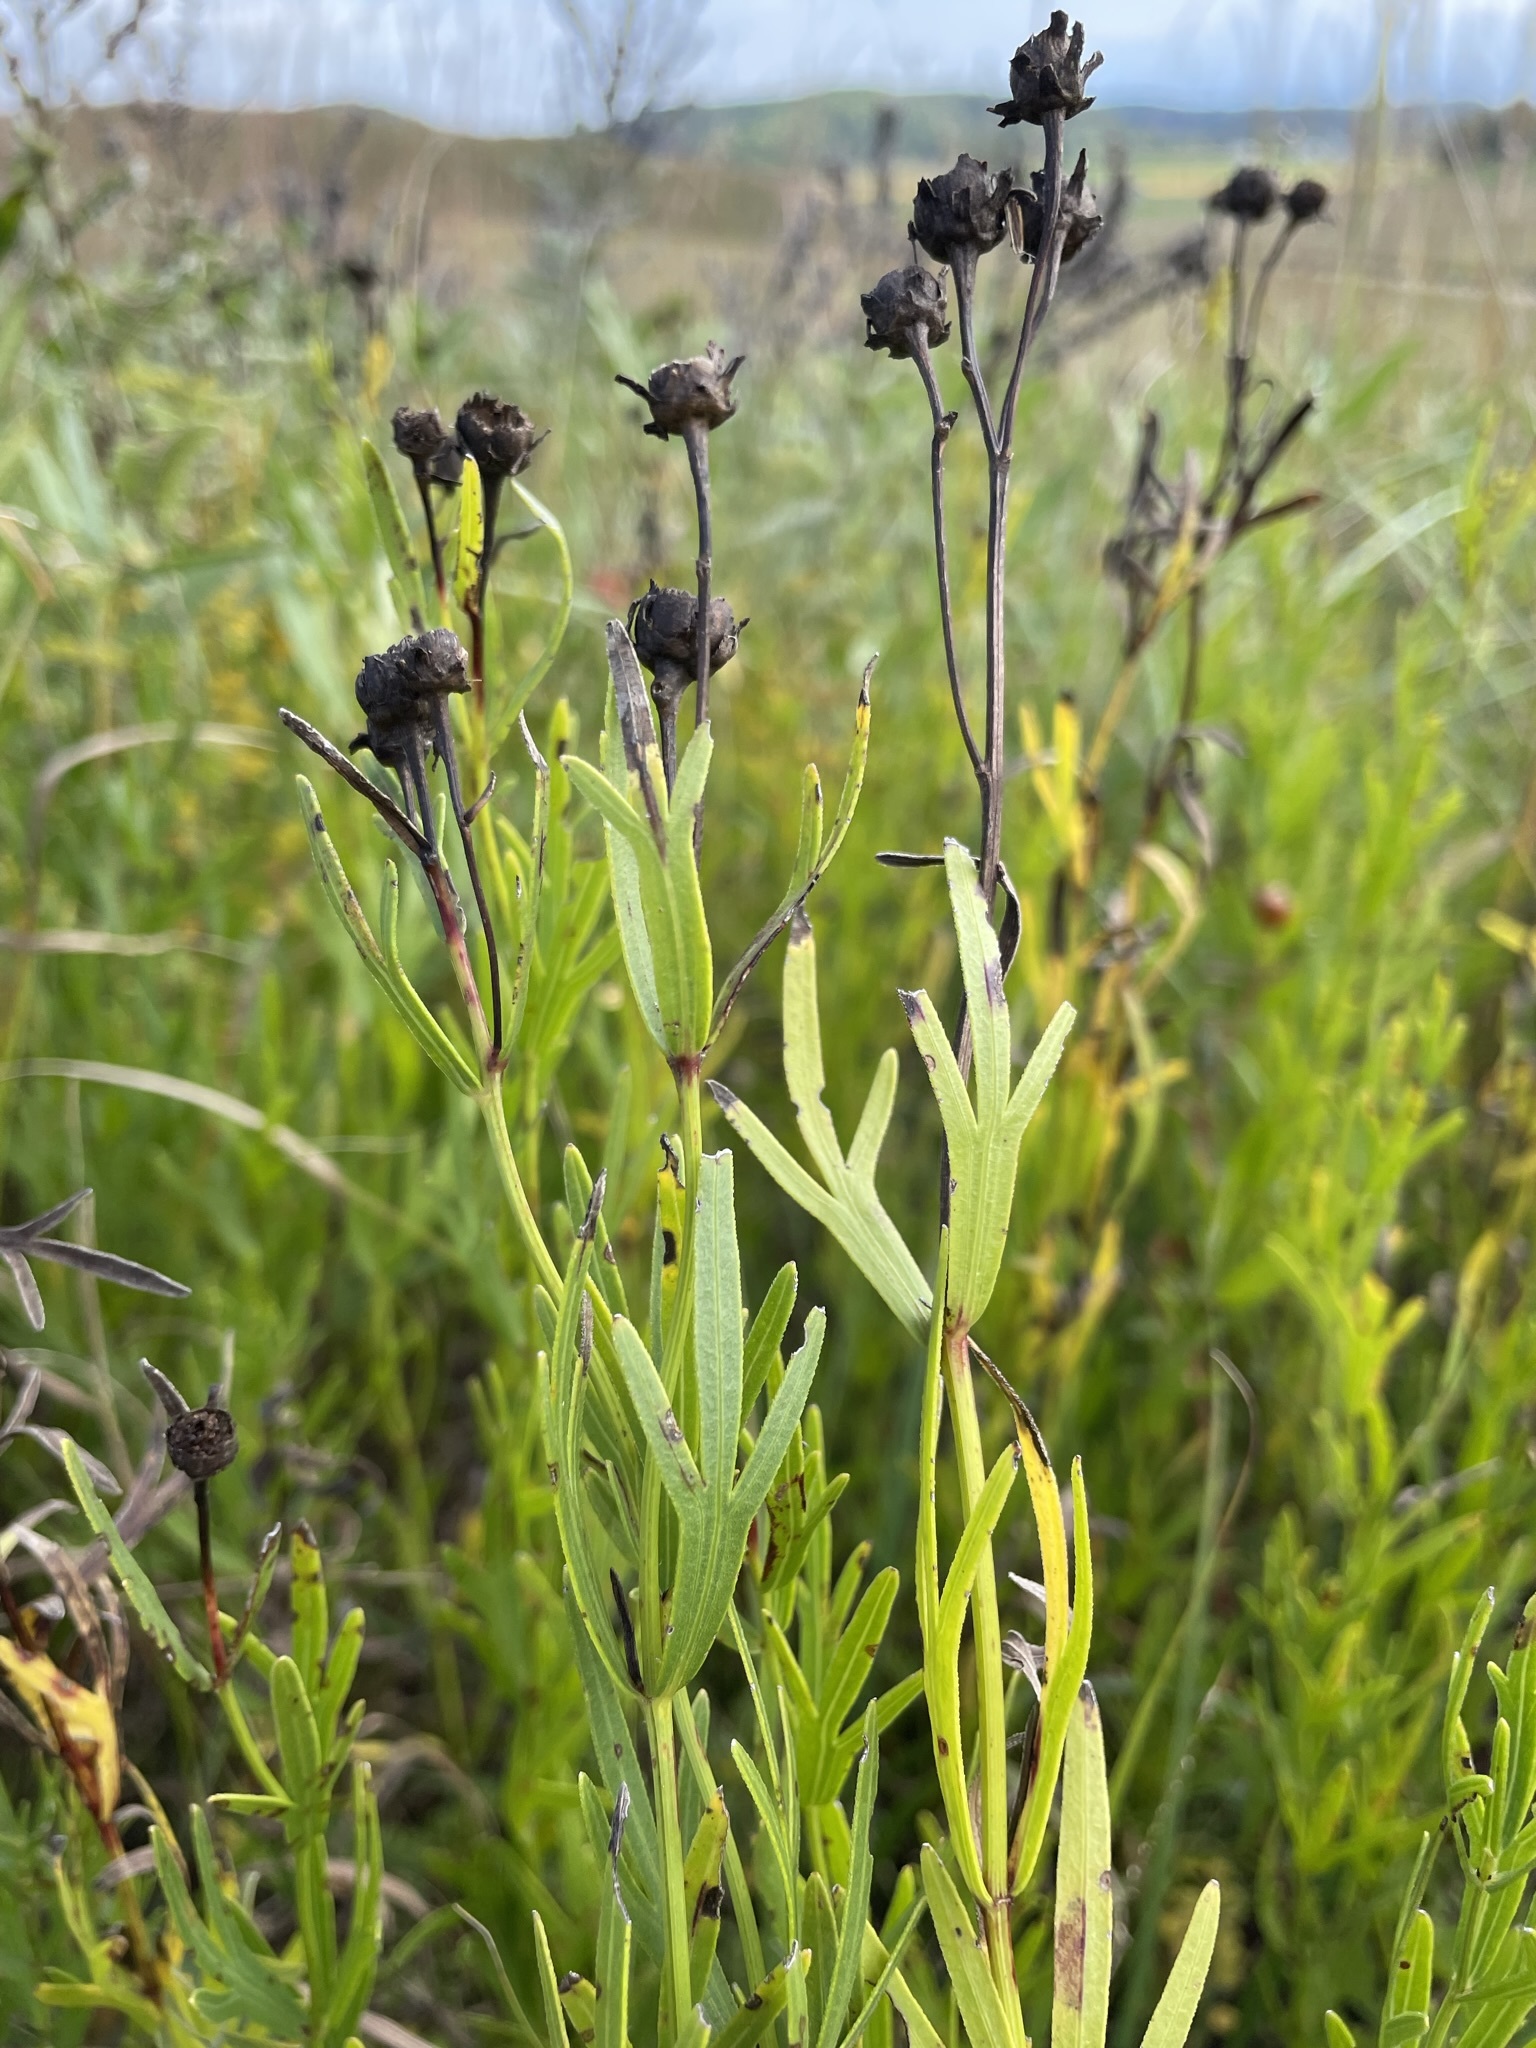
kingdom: Plantae
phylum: Tracheophyta
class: Magnoliopsida
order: Asterales
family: Asteraceae
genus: Coreopsis
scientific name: Coreopsis palmata
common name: Prairie coreopsis
